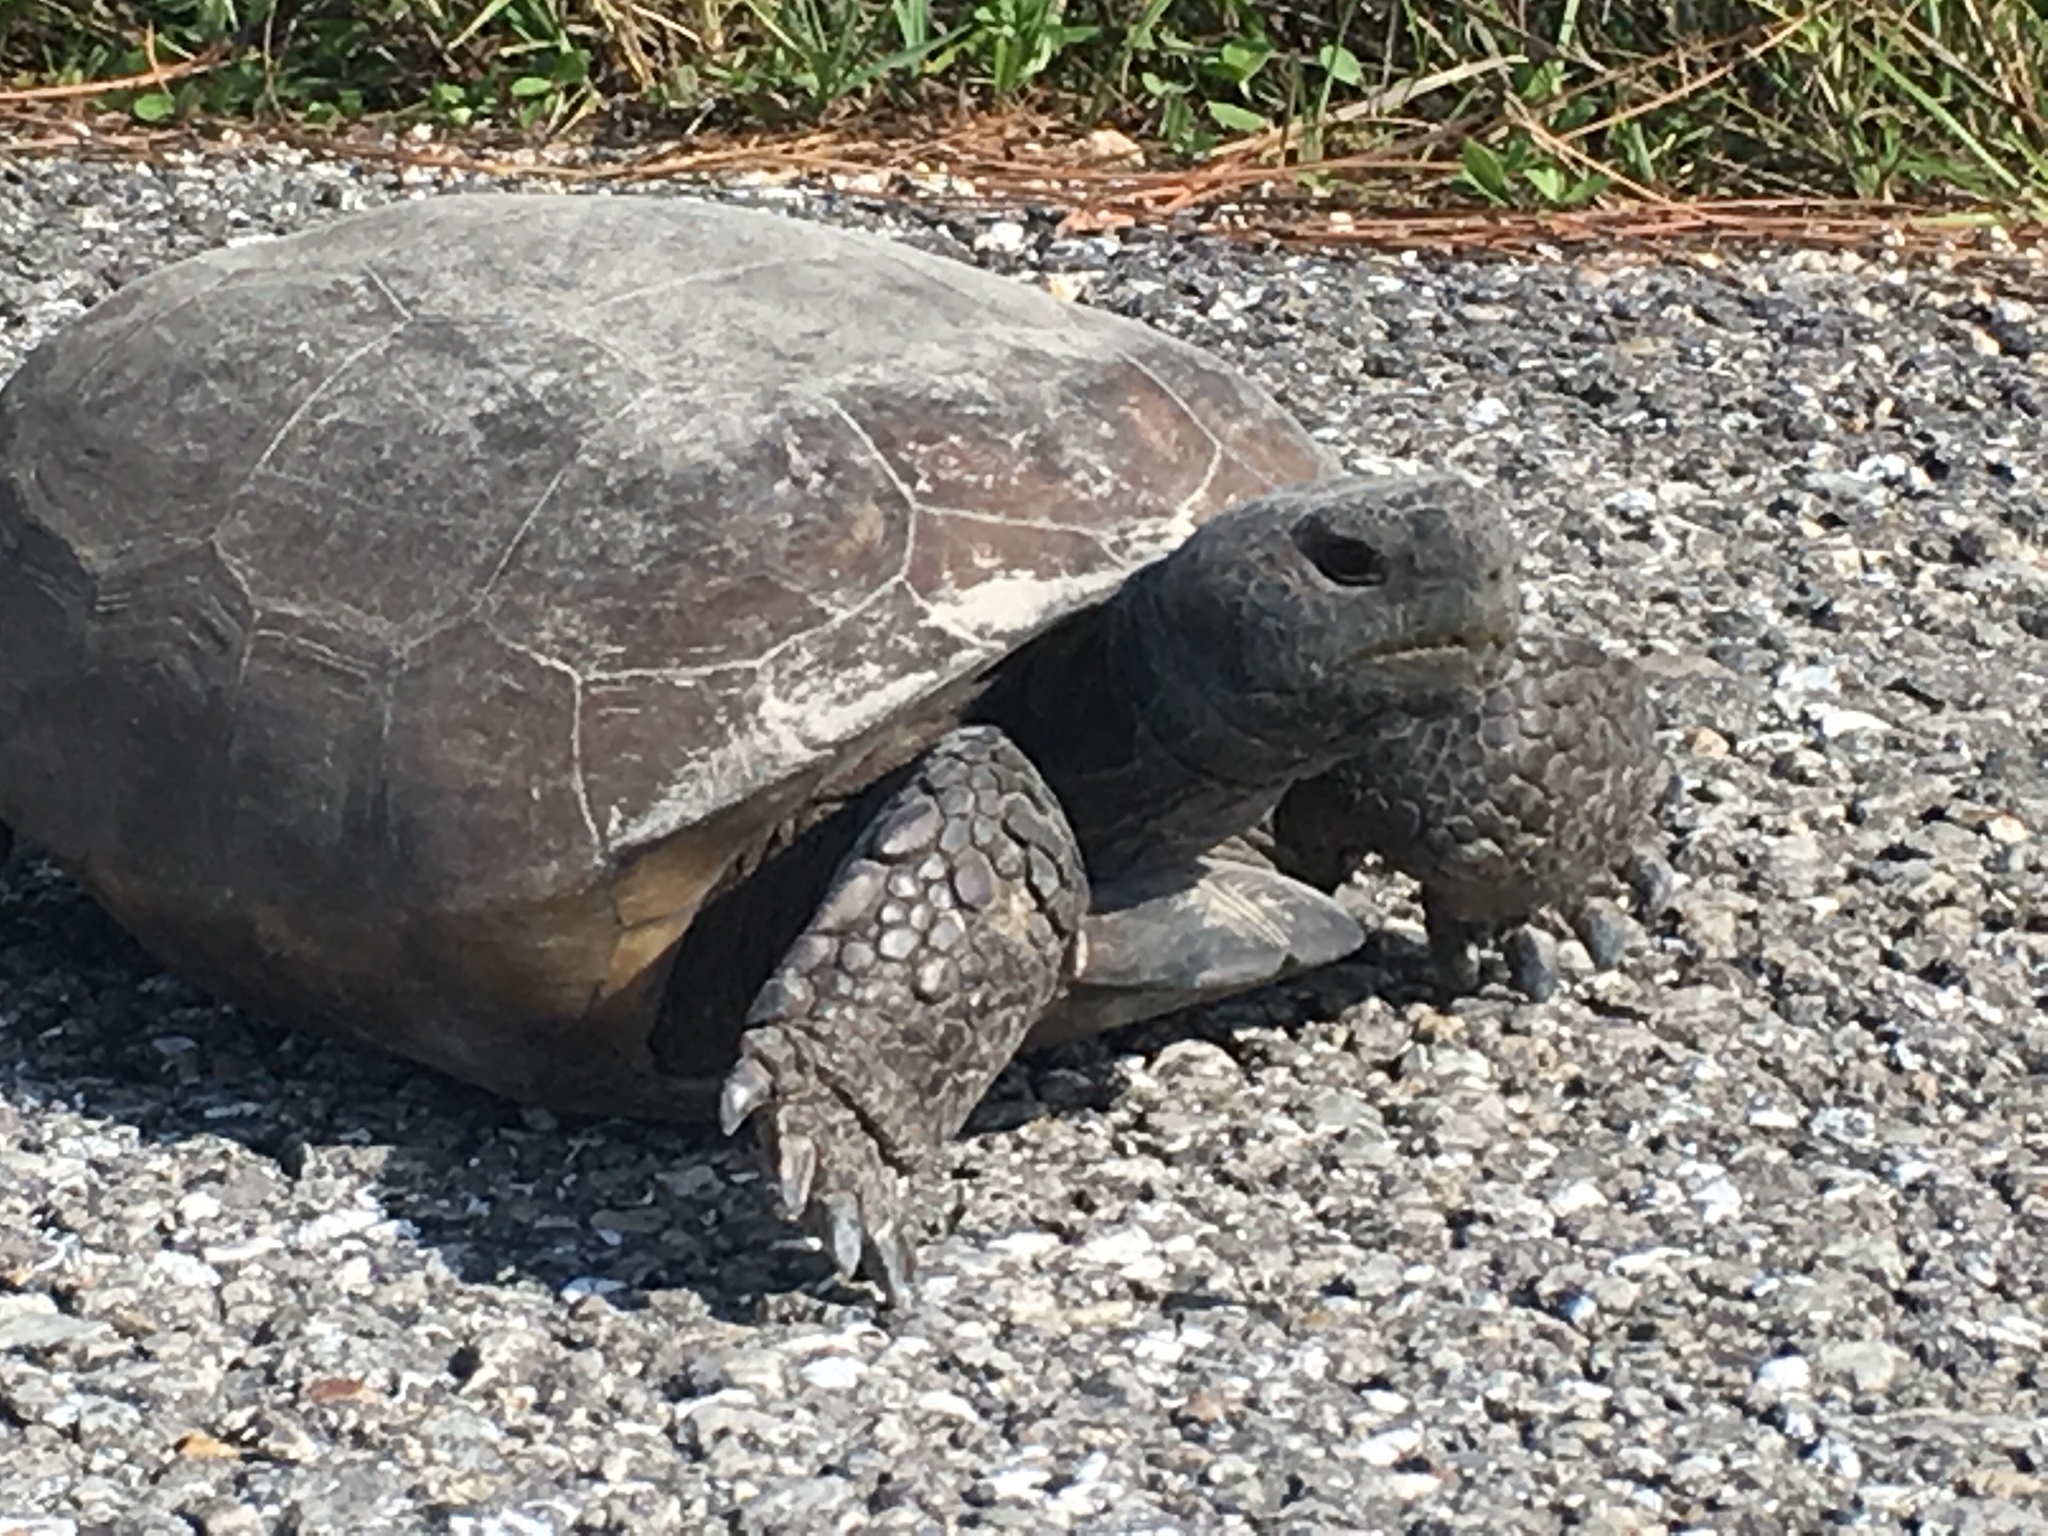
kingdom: Animalia
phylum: Chordata
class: Testudines
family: Testudinidae
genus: Gopherus
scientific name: Gopherus polyphemus
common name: Florida gopher tortoise
